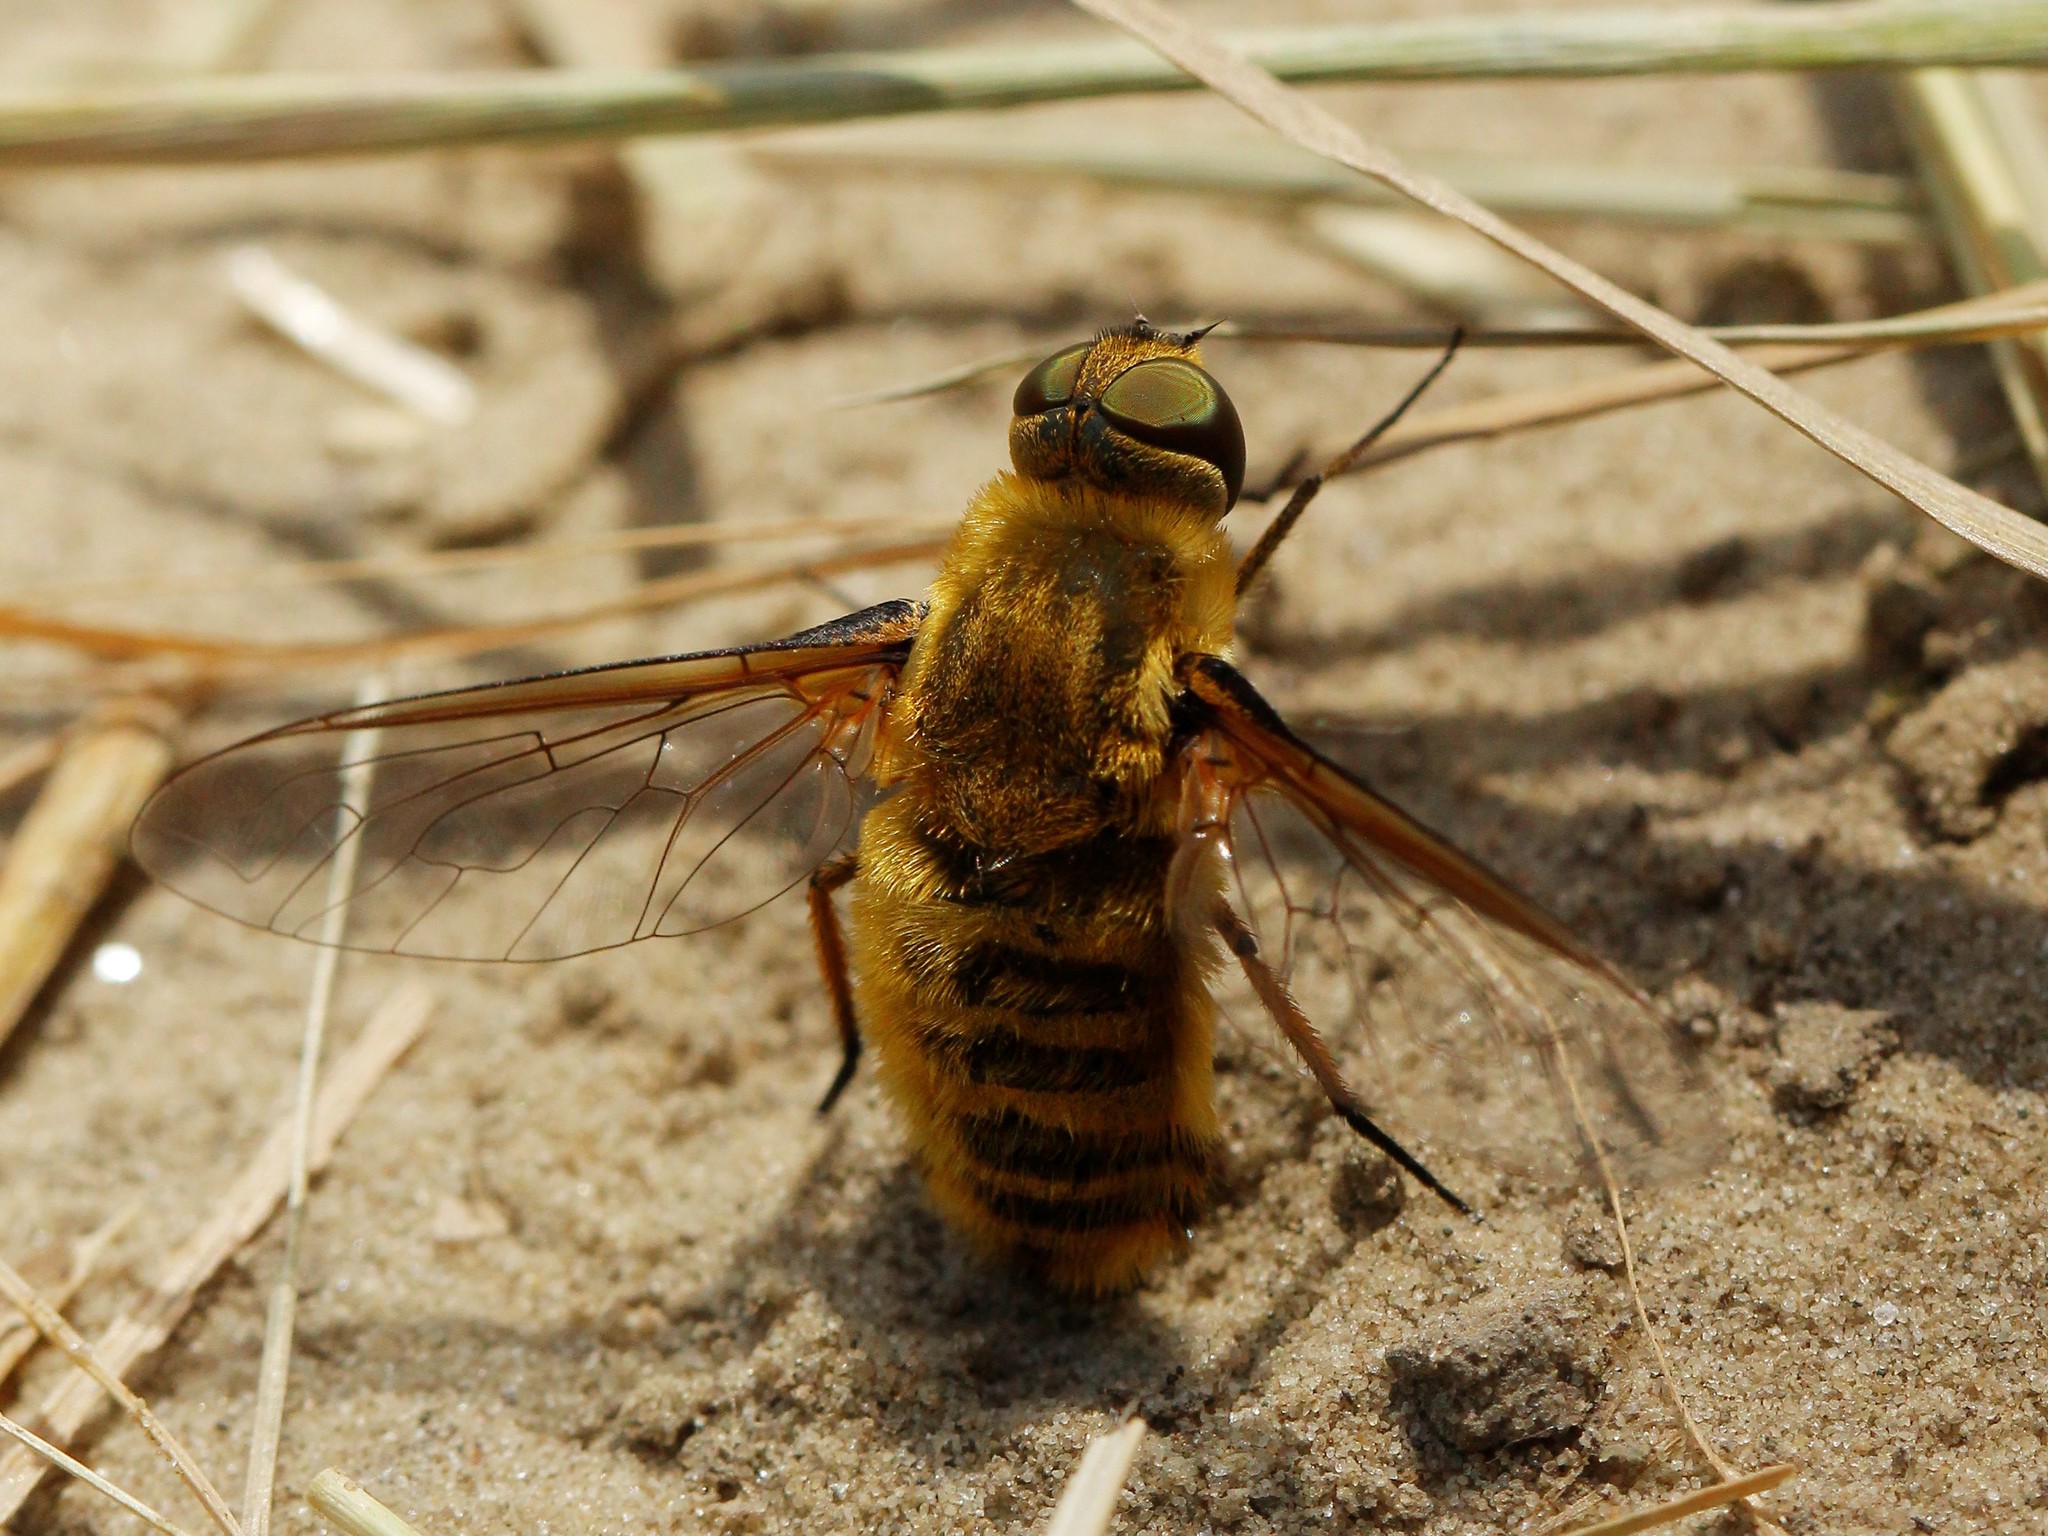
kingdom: Animalia
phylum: Arthropoda
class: Insecta
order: Diptera
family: Bombyliidae
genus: Villa
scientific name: Villa hottentotta
